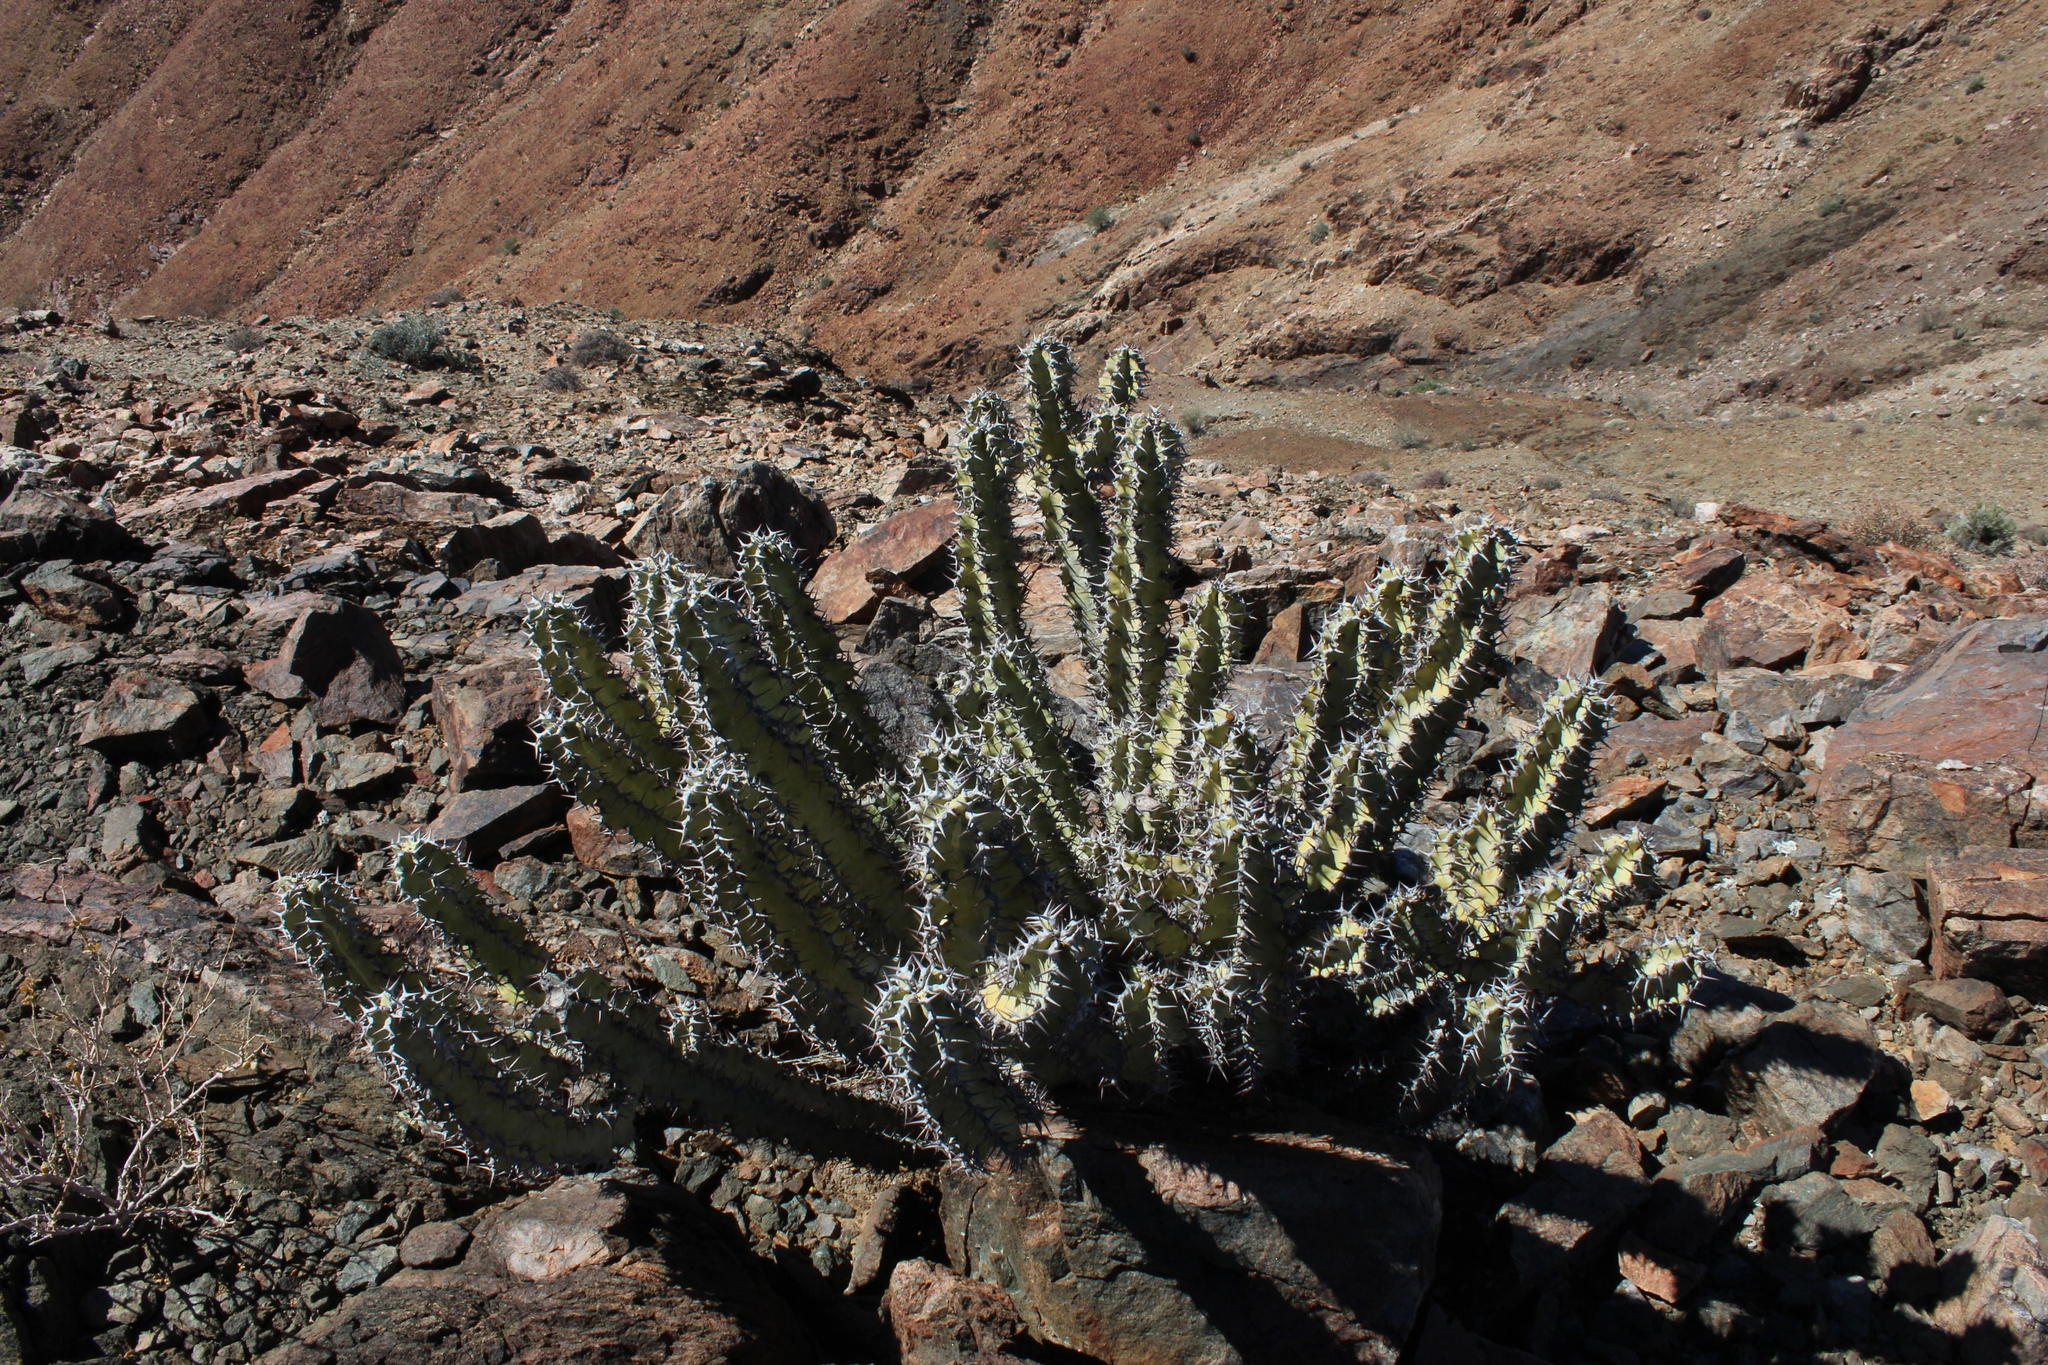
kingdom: Plantae
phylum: Tracheophyta
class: Magnoliopsida
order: Malpighiales
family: Euphorbiaceae
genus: Euphorbia
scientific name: Euphorbia virosa
